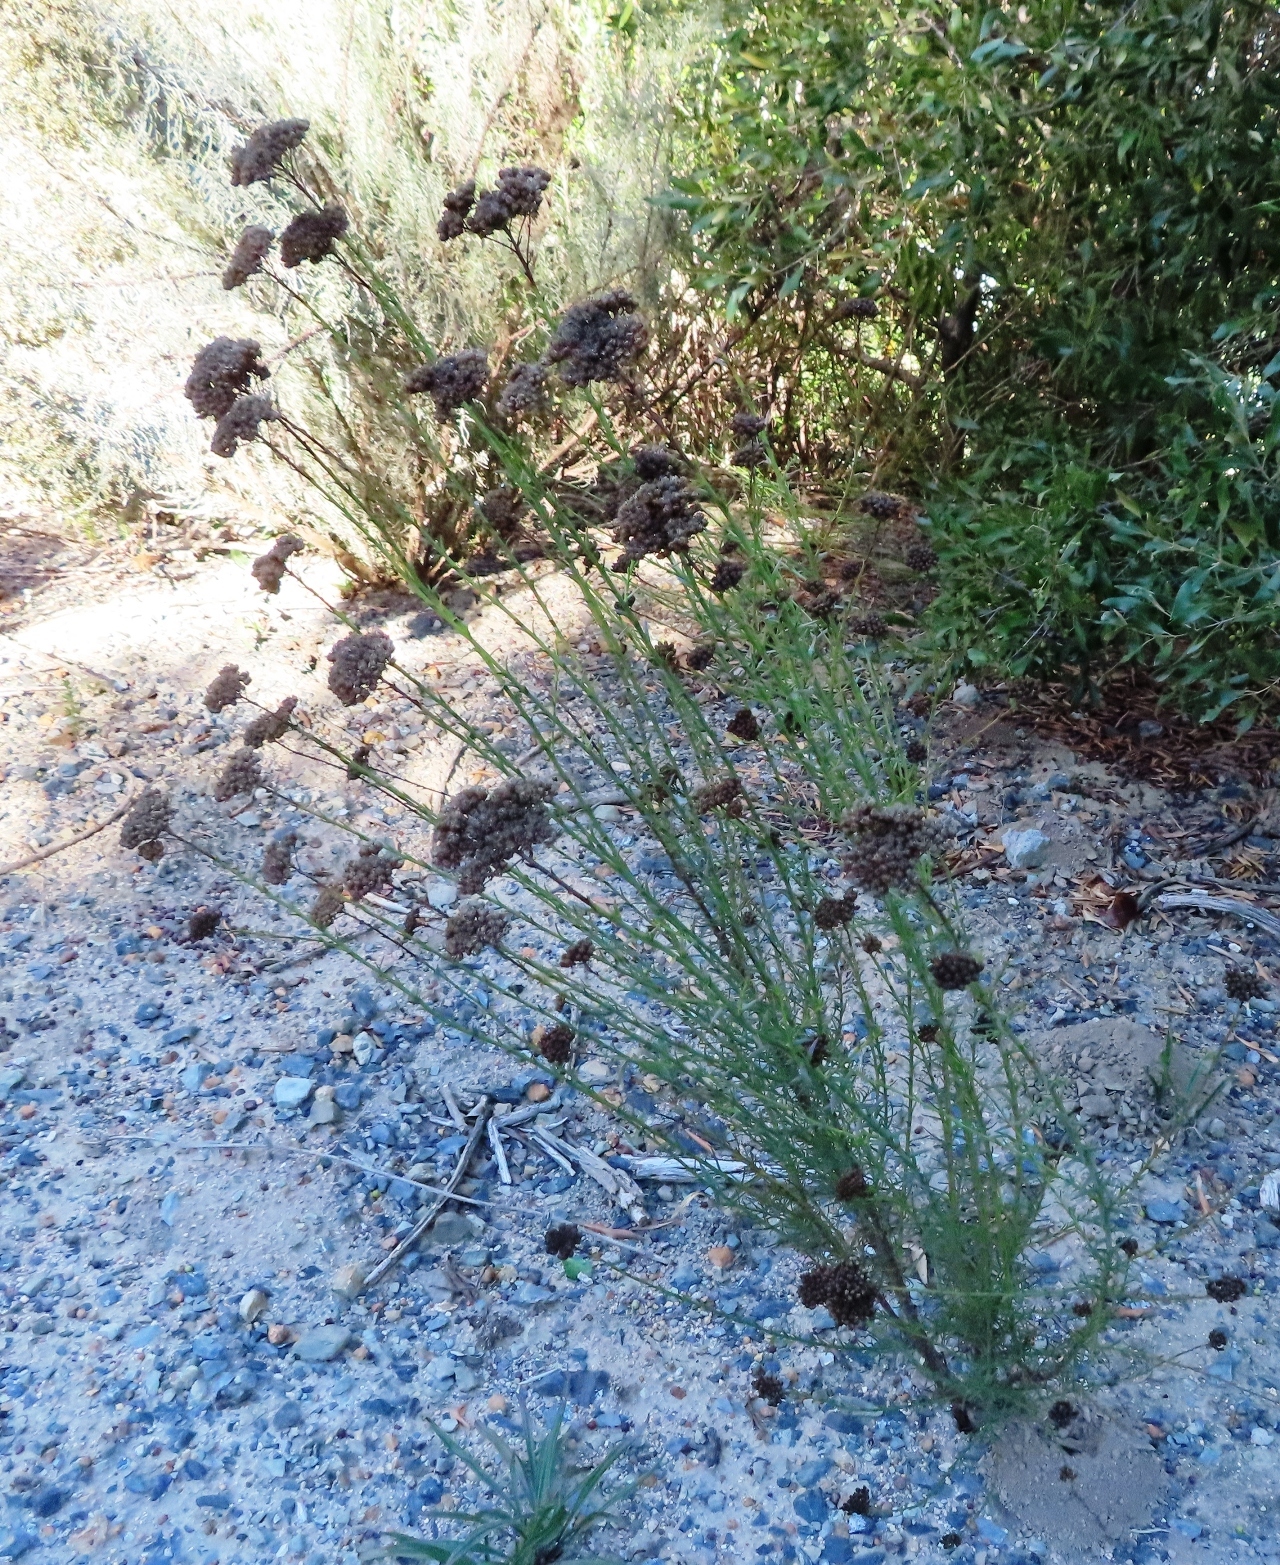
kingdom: Plantae
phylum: Tracheophyta
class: Magnoliopsida
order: Asterales
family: Asteraceae
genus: Athanasia
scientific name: Athanasia juncea
